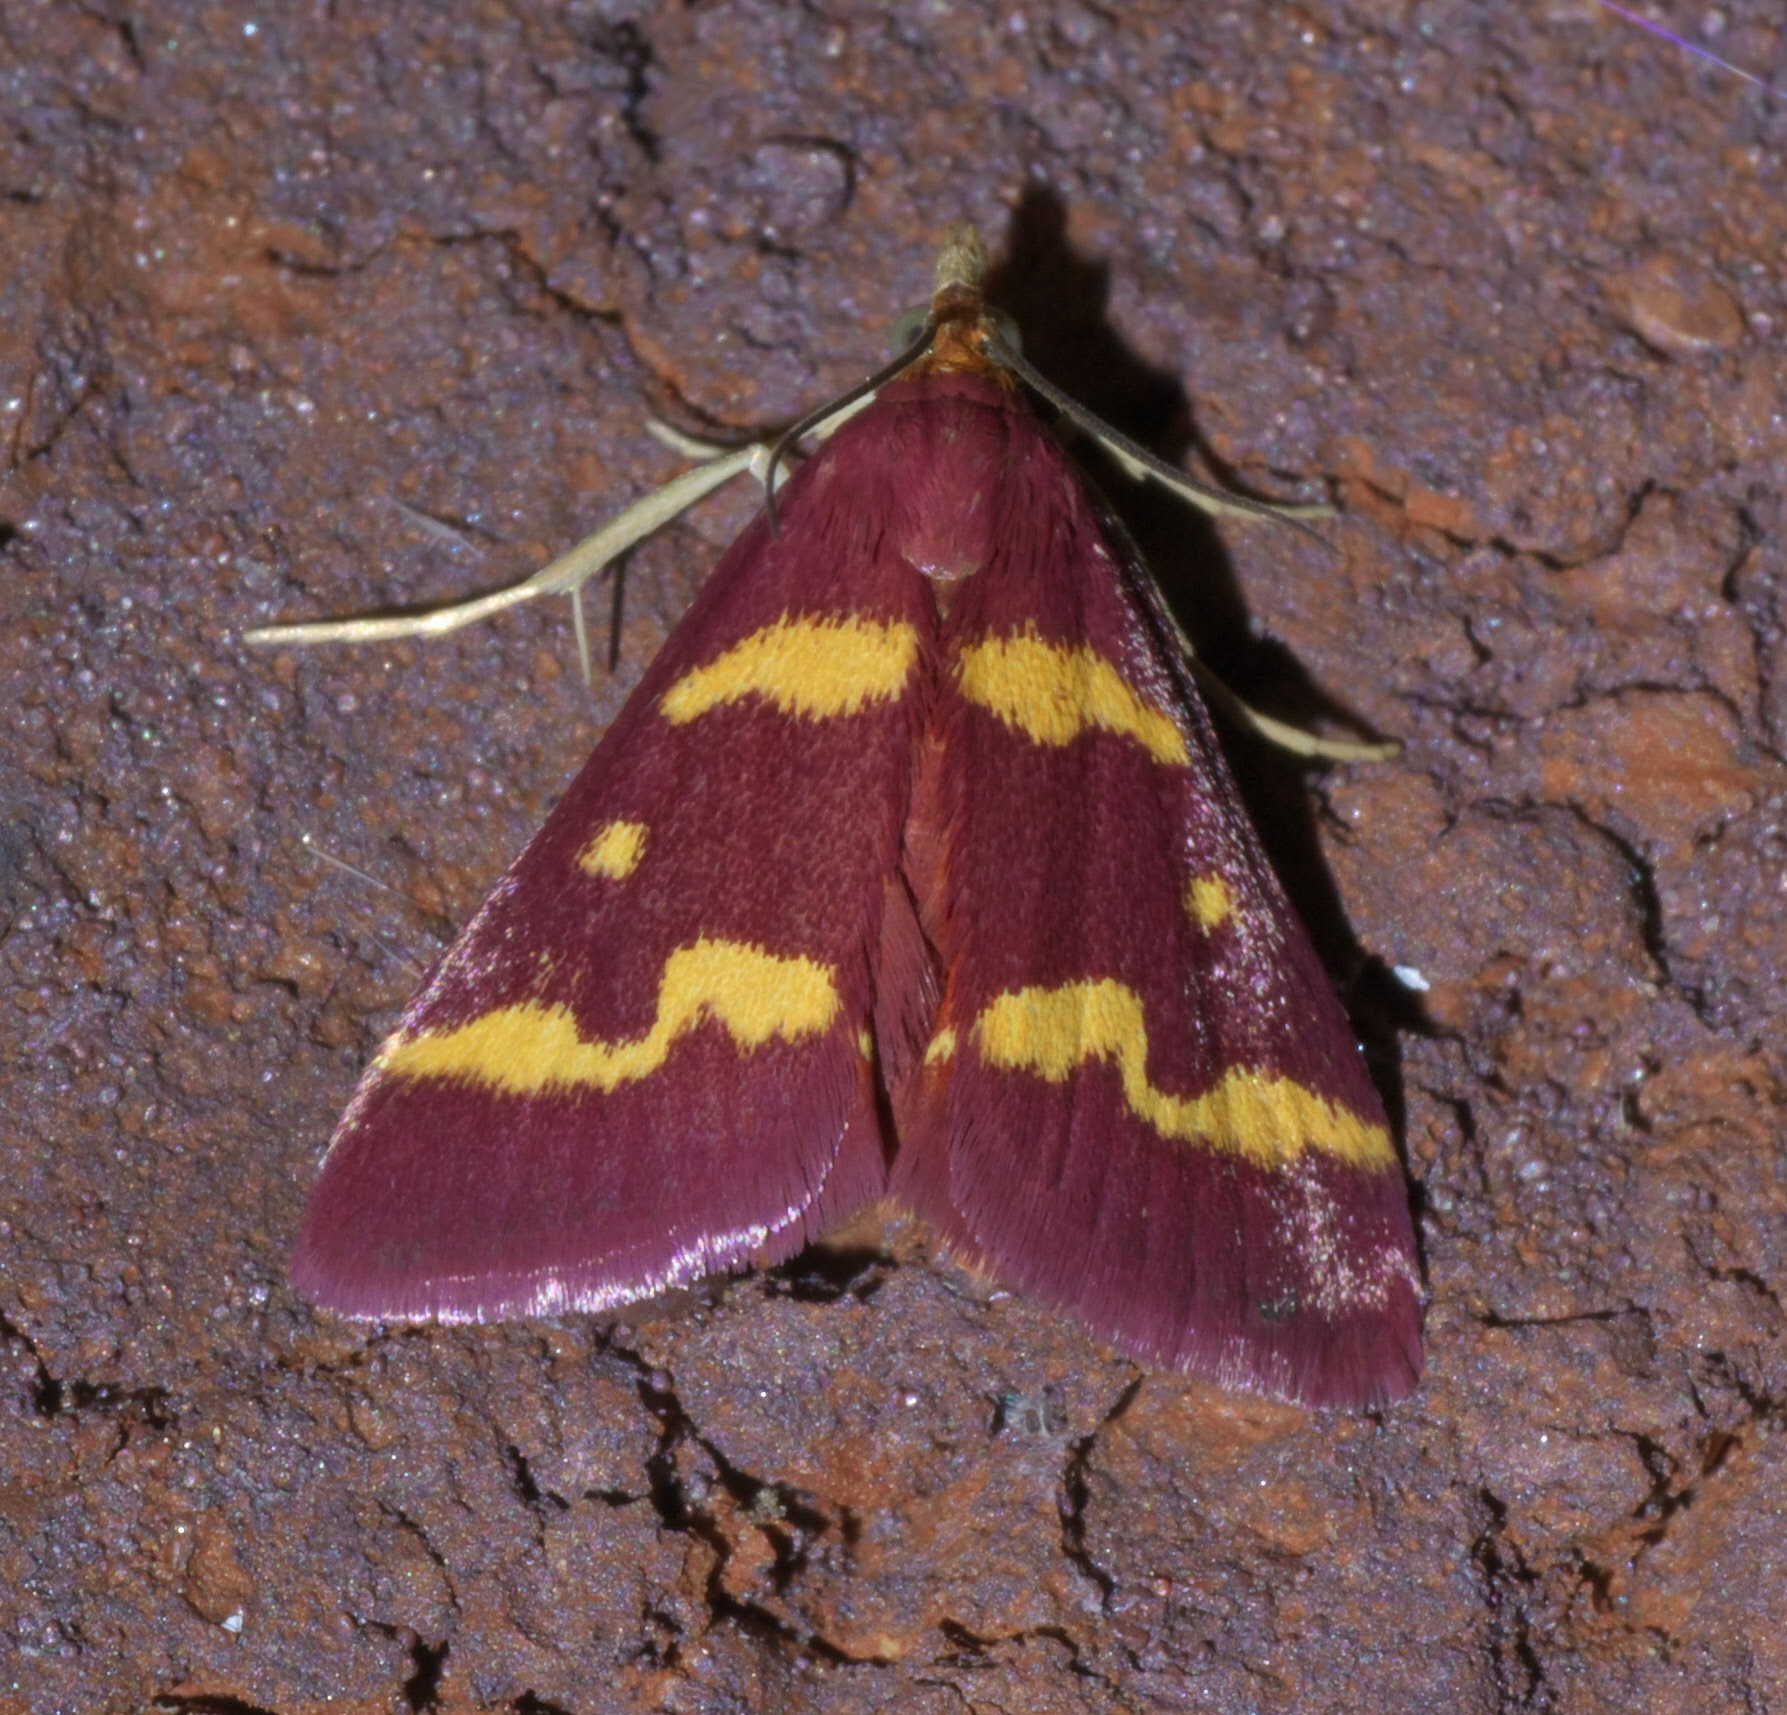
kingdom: Animalia
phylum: Arthropoda
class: Insecta
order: Lepidoptera
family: Crambidae
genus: Pyrausta
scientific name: Pyrausta tyralis
